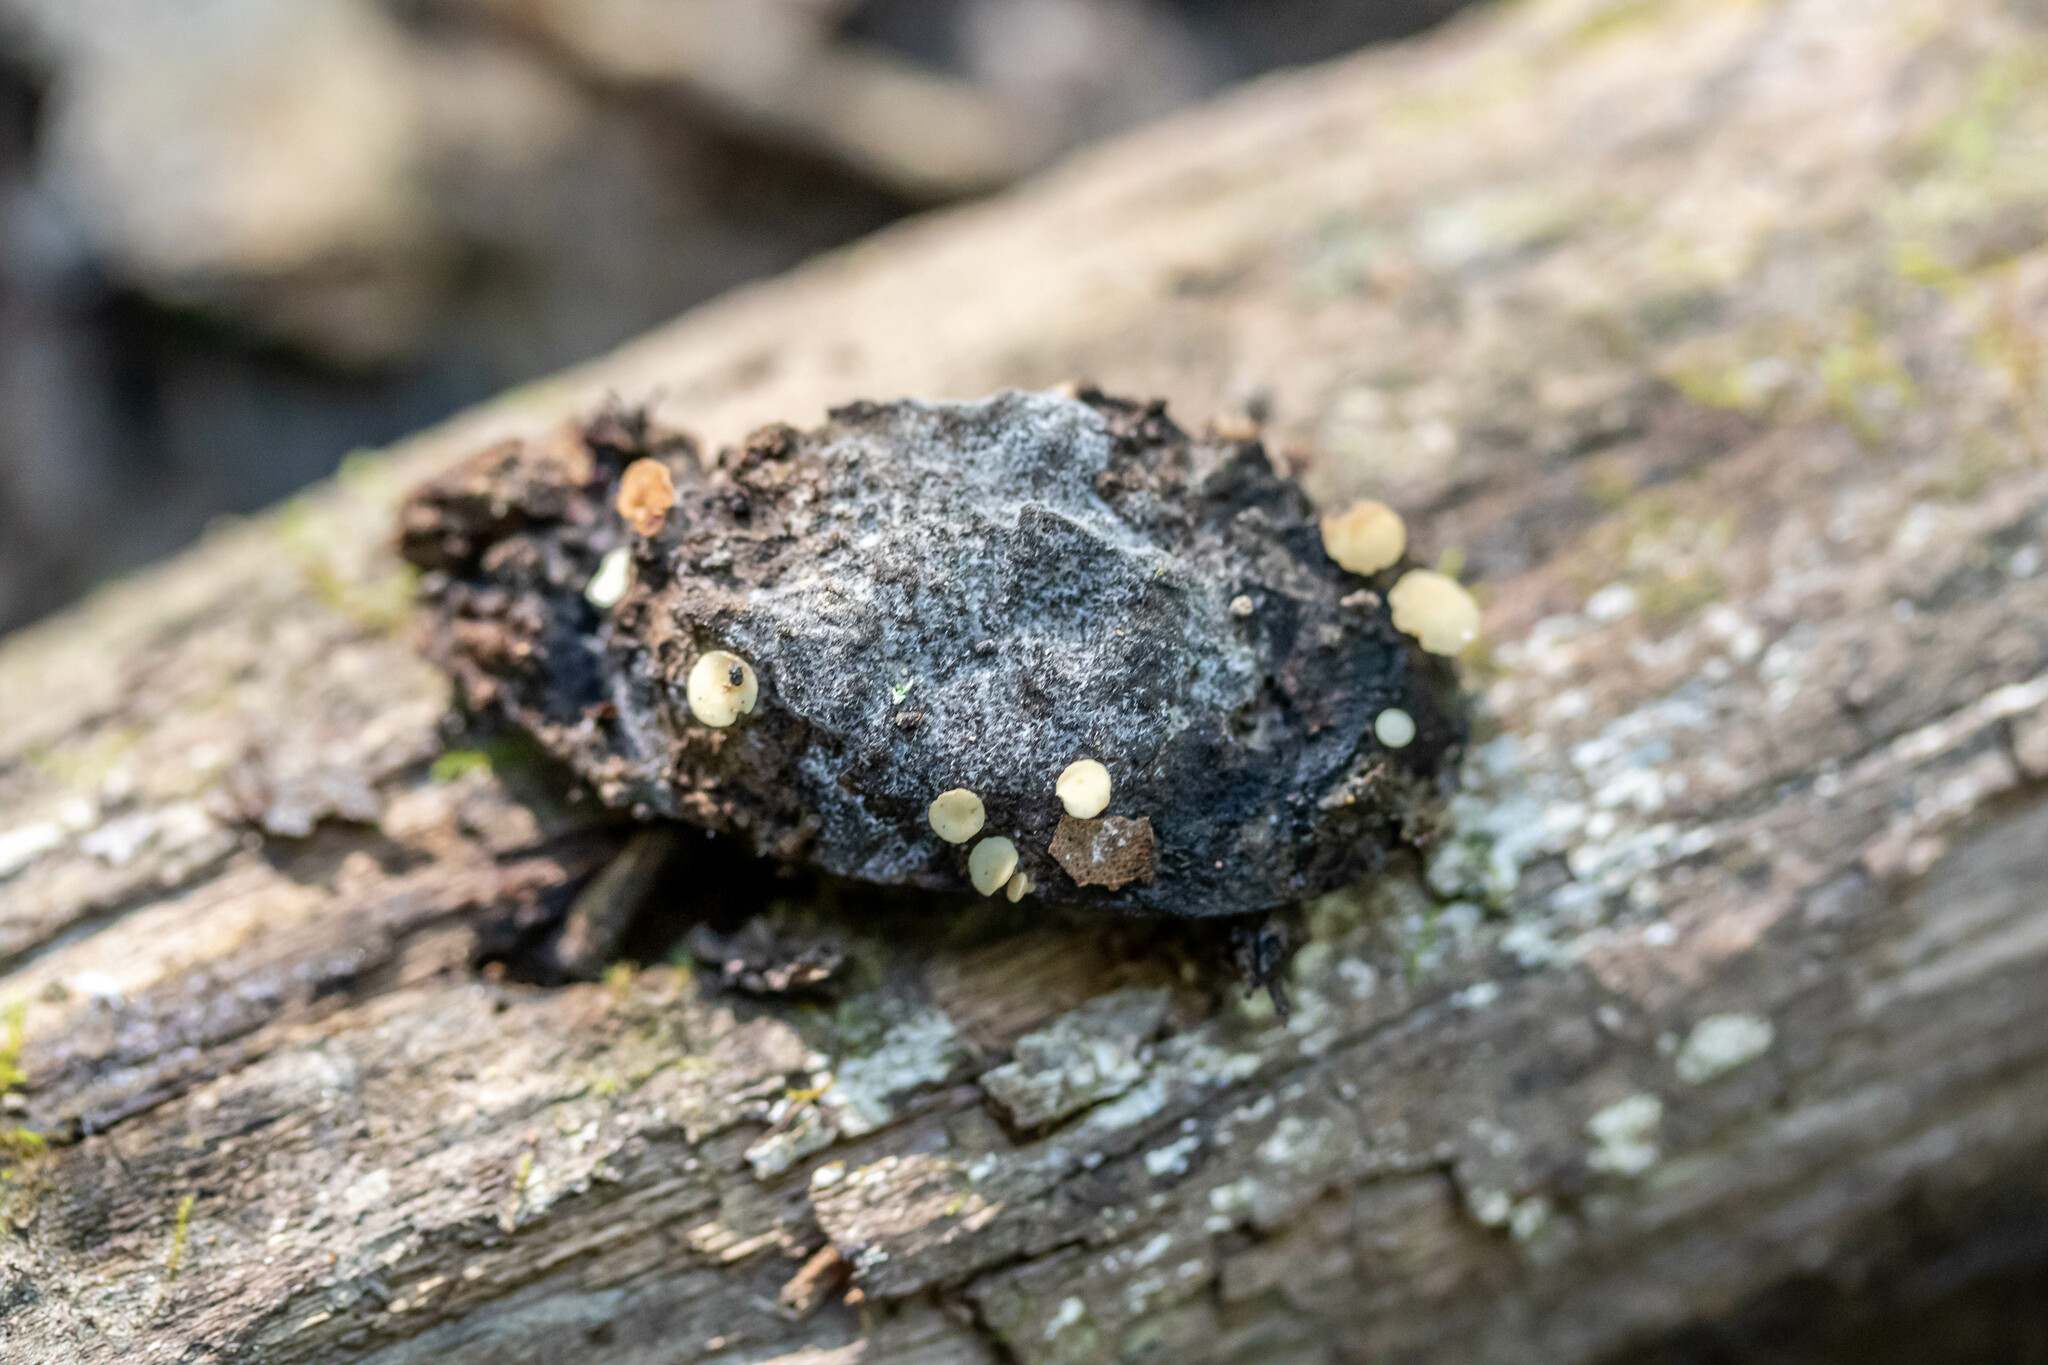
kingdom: Fungi
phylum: Ascomycota
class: Leotiomycetes
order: Helotiales
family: Helotiaceae
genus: Hymenoscyphus
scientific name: Hymenoscyphus fructigenus
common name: Nut disco
